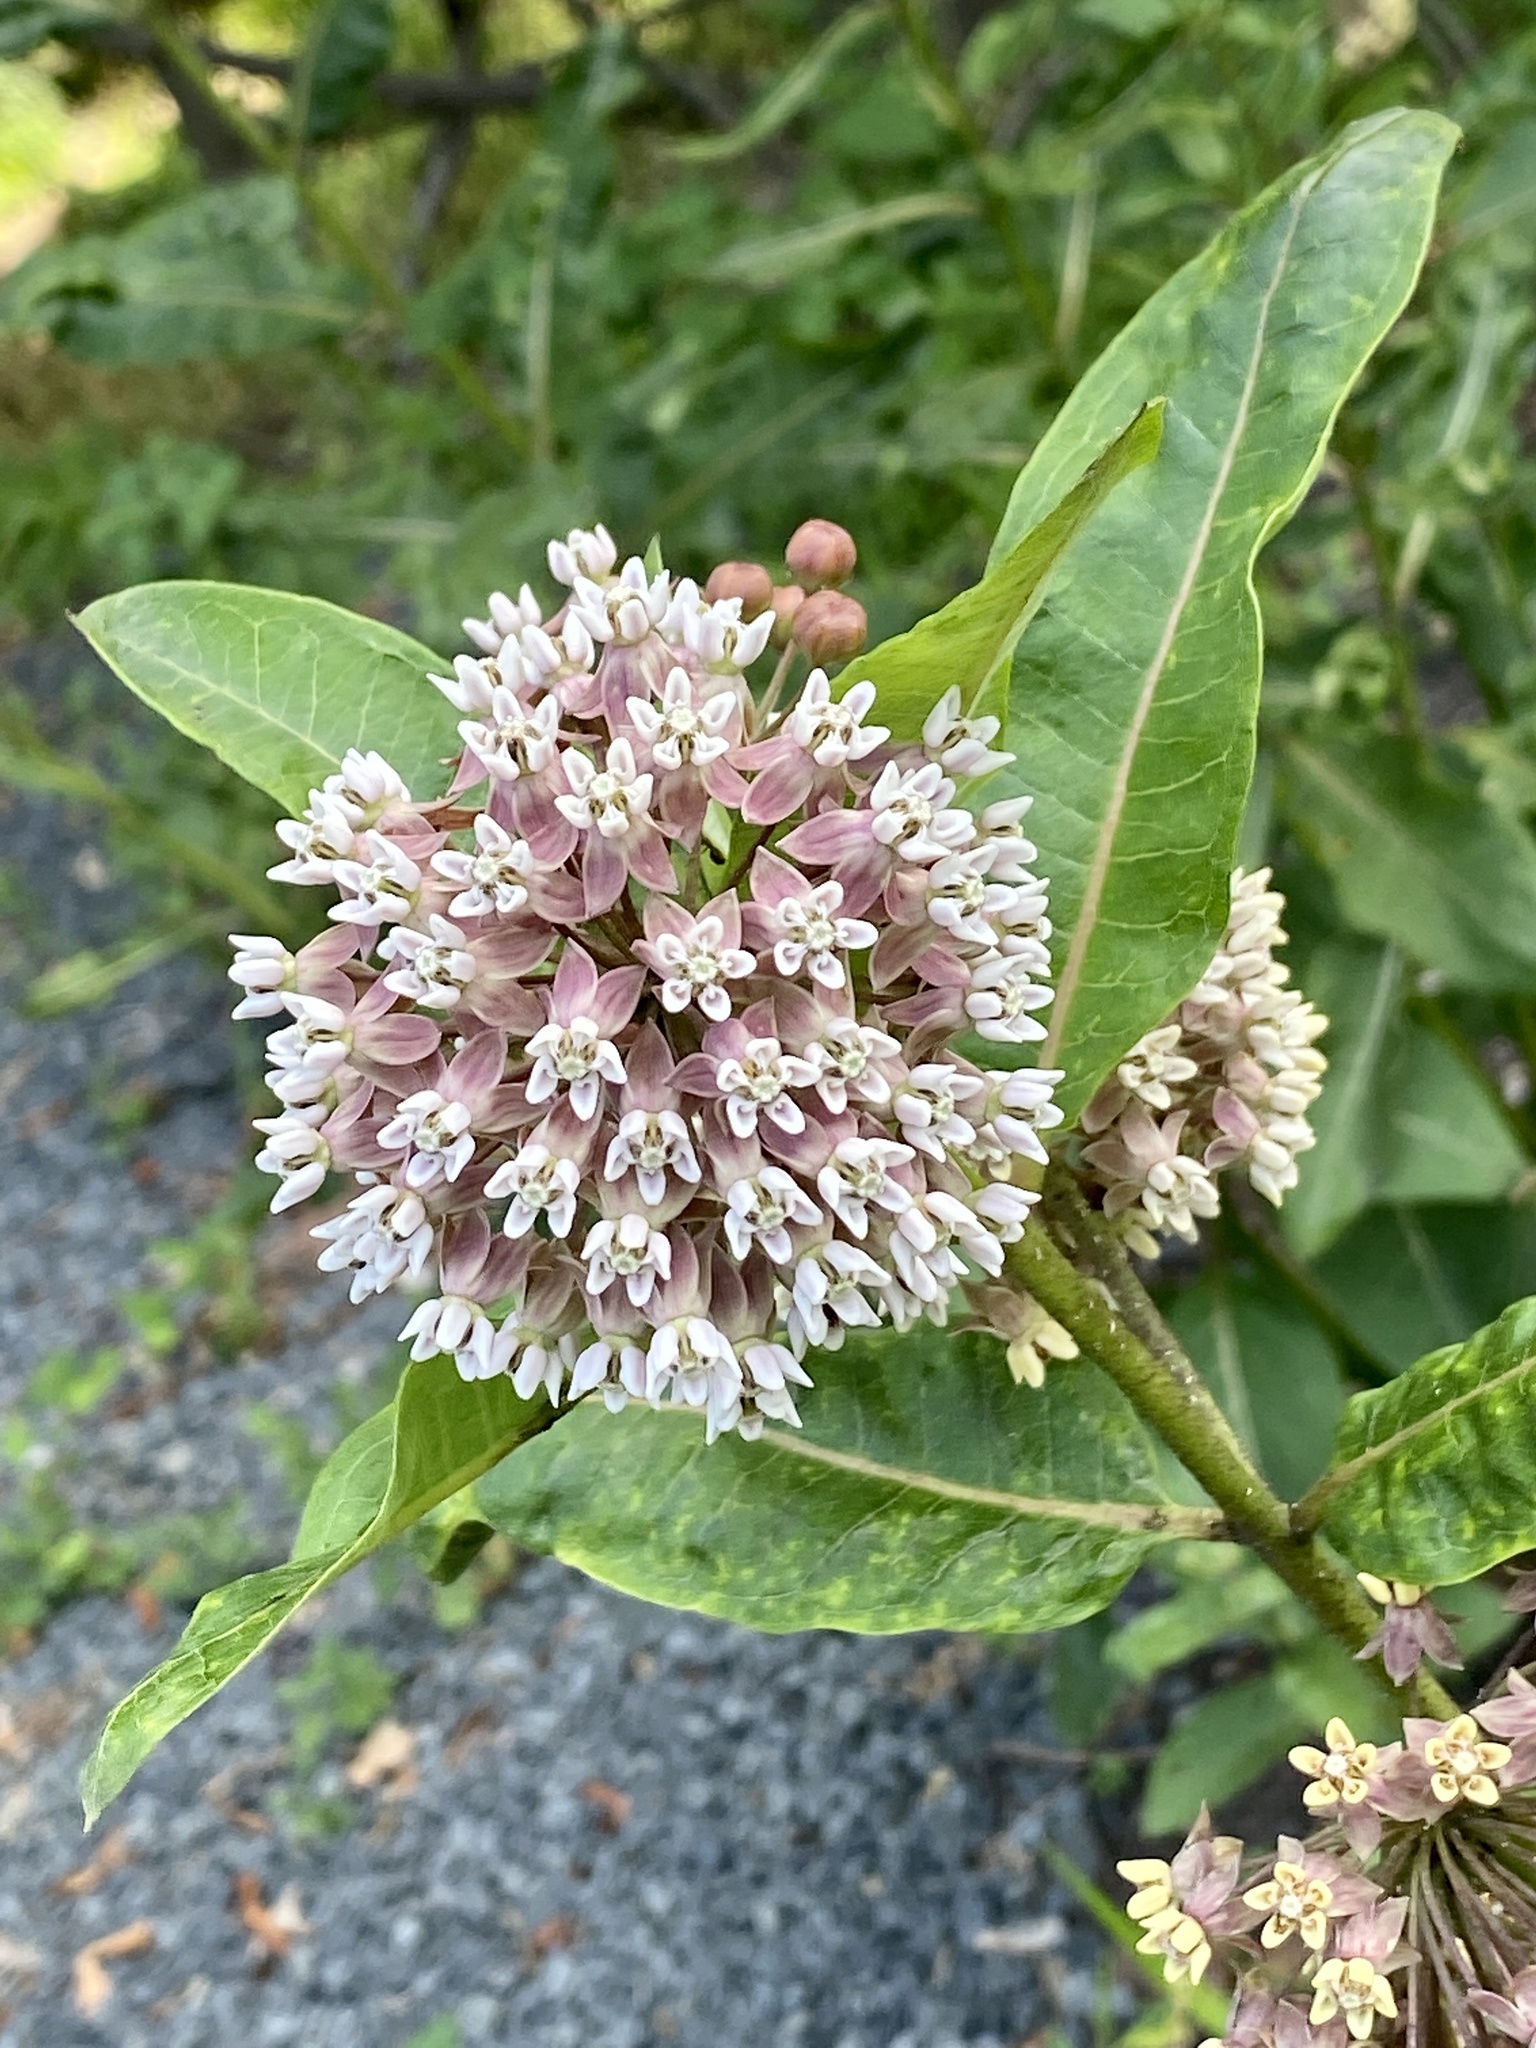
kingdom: Plantae
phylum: Tracheophyta
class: Magnoliopsida
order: Gentianales
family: Apocynaceae
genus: Asclepias
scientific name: Asclepias syriaca
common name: Common milkweed
